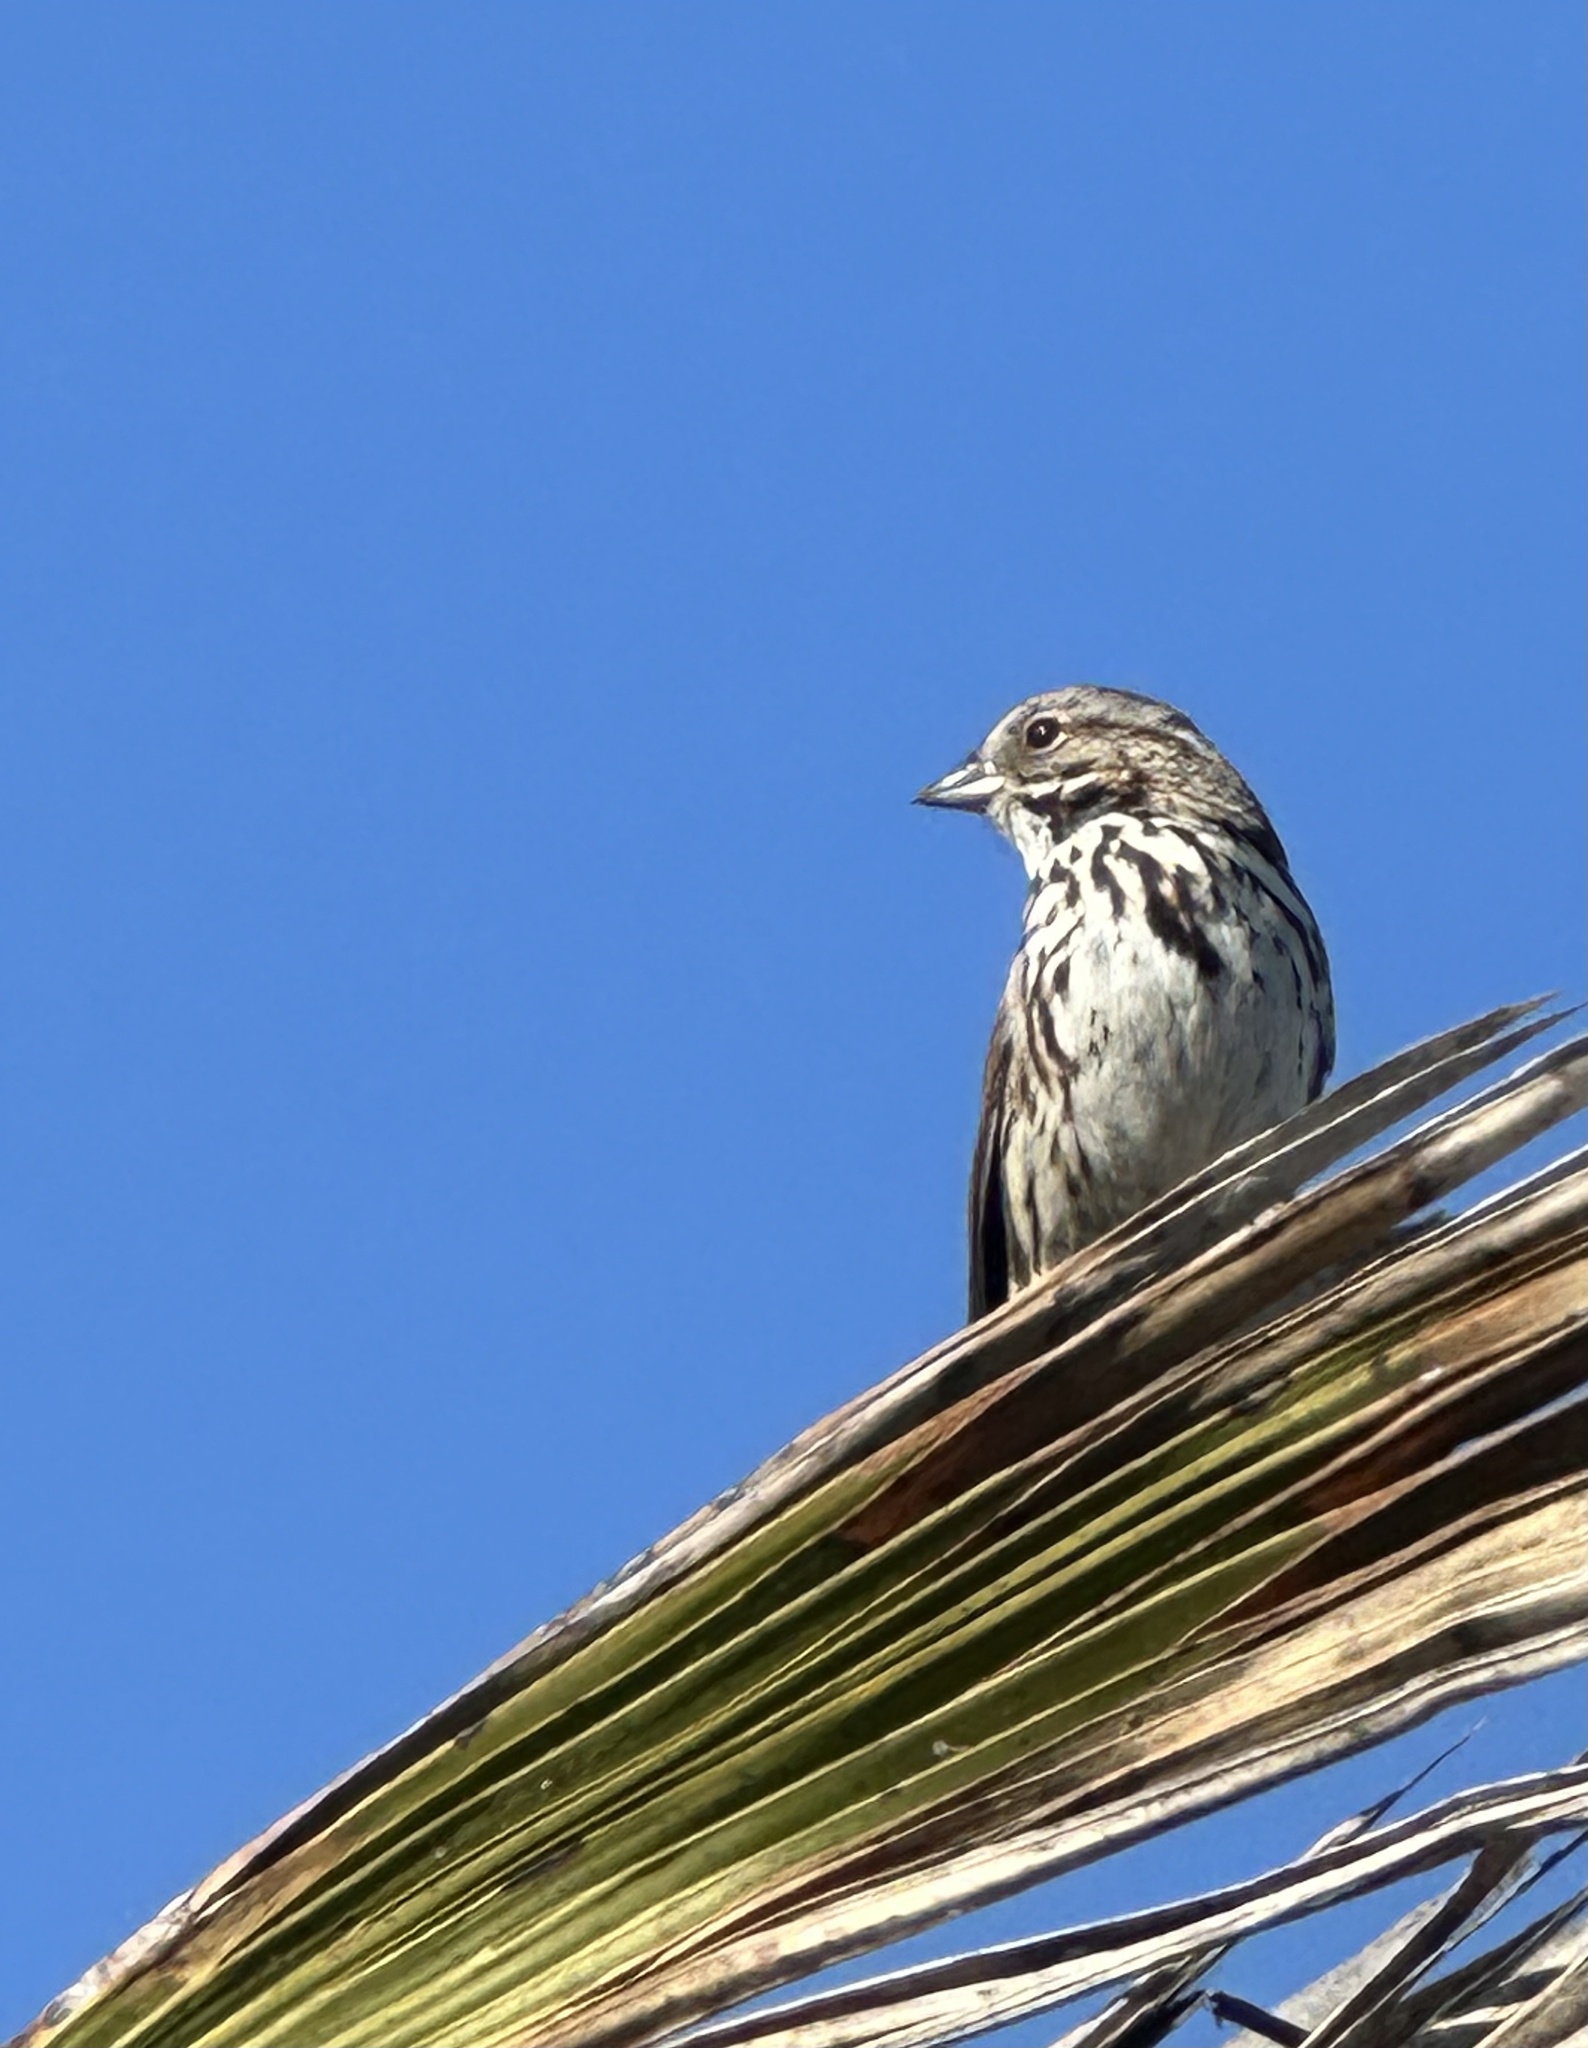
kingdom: Animalia
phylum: Chordata
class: Aves
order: Passeriformes
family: Passerellidae
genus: Melospiza
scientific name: Melospiza melodia
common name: Song sparrow
